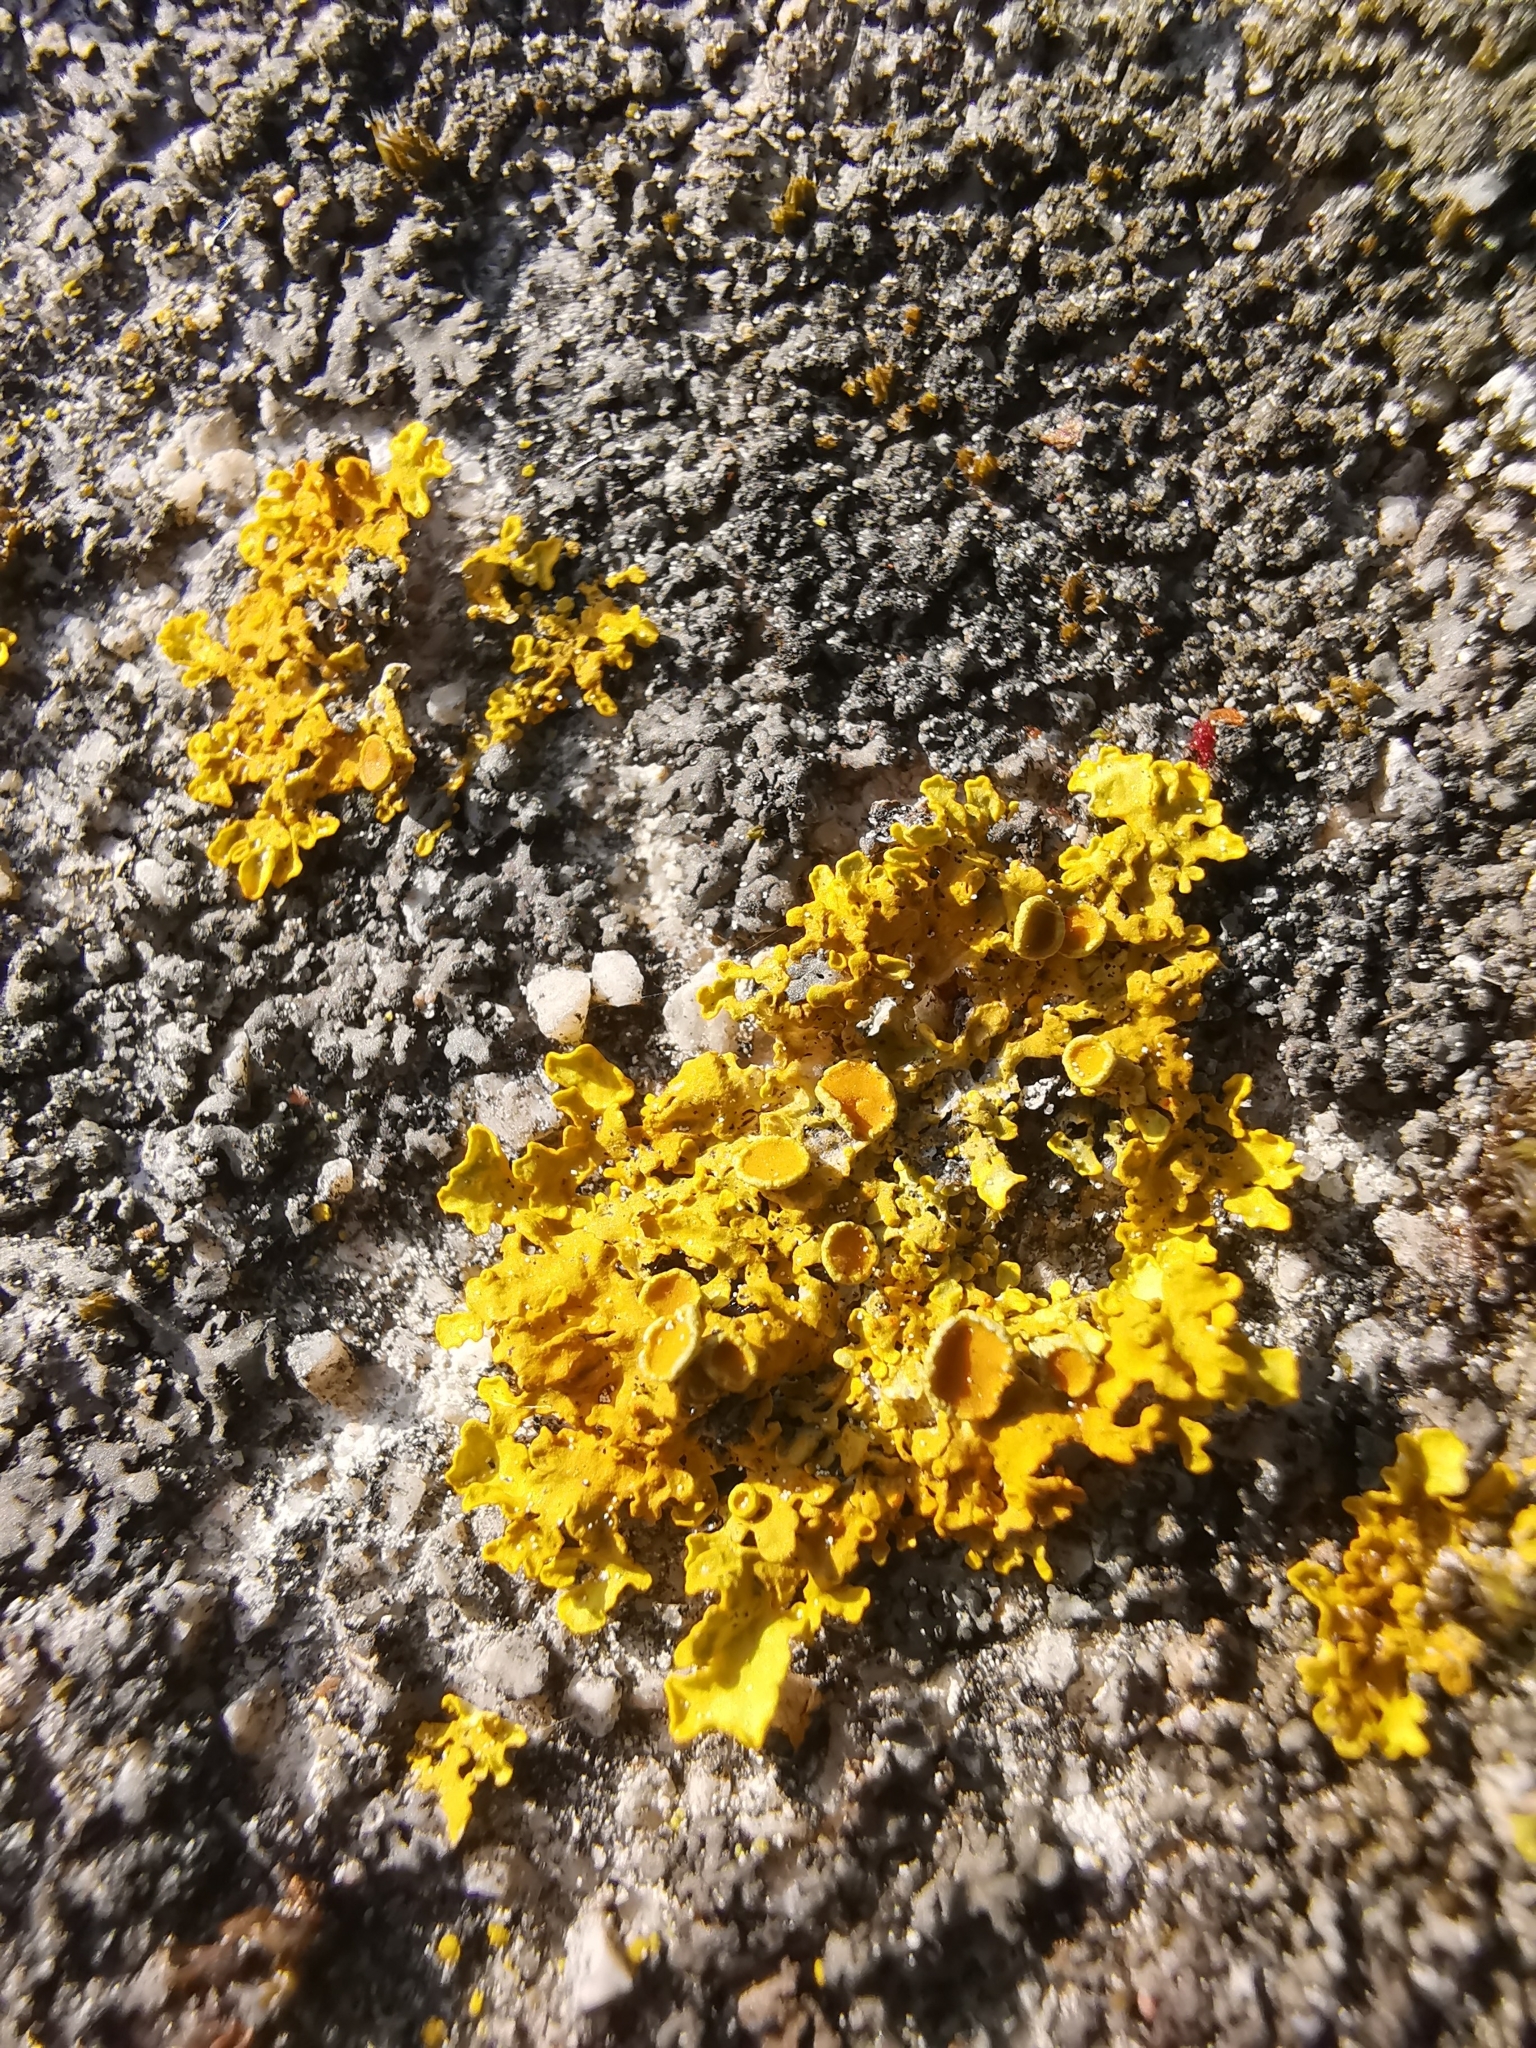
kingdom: Fungi
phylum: Ascomycota
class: Lecanoromycetes
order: Teloschistales
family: Teloschistaceae
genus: Xanthoria
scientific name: Xanthoria parietina
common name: Common orange lichen
